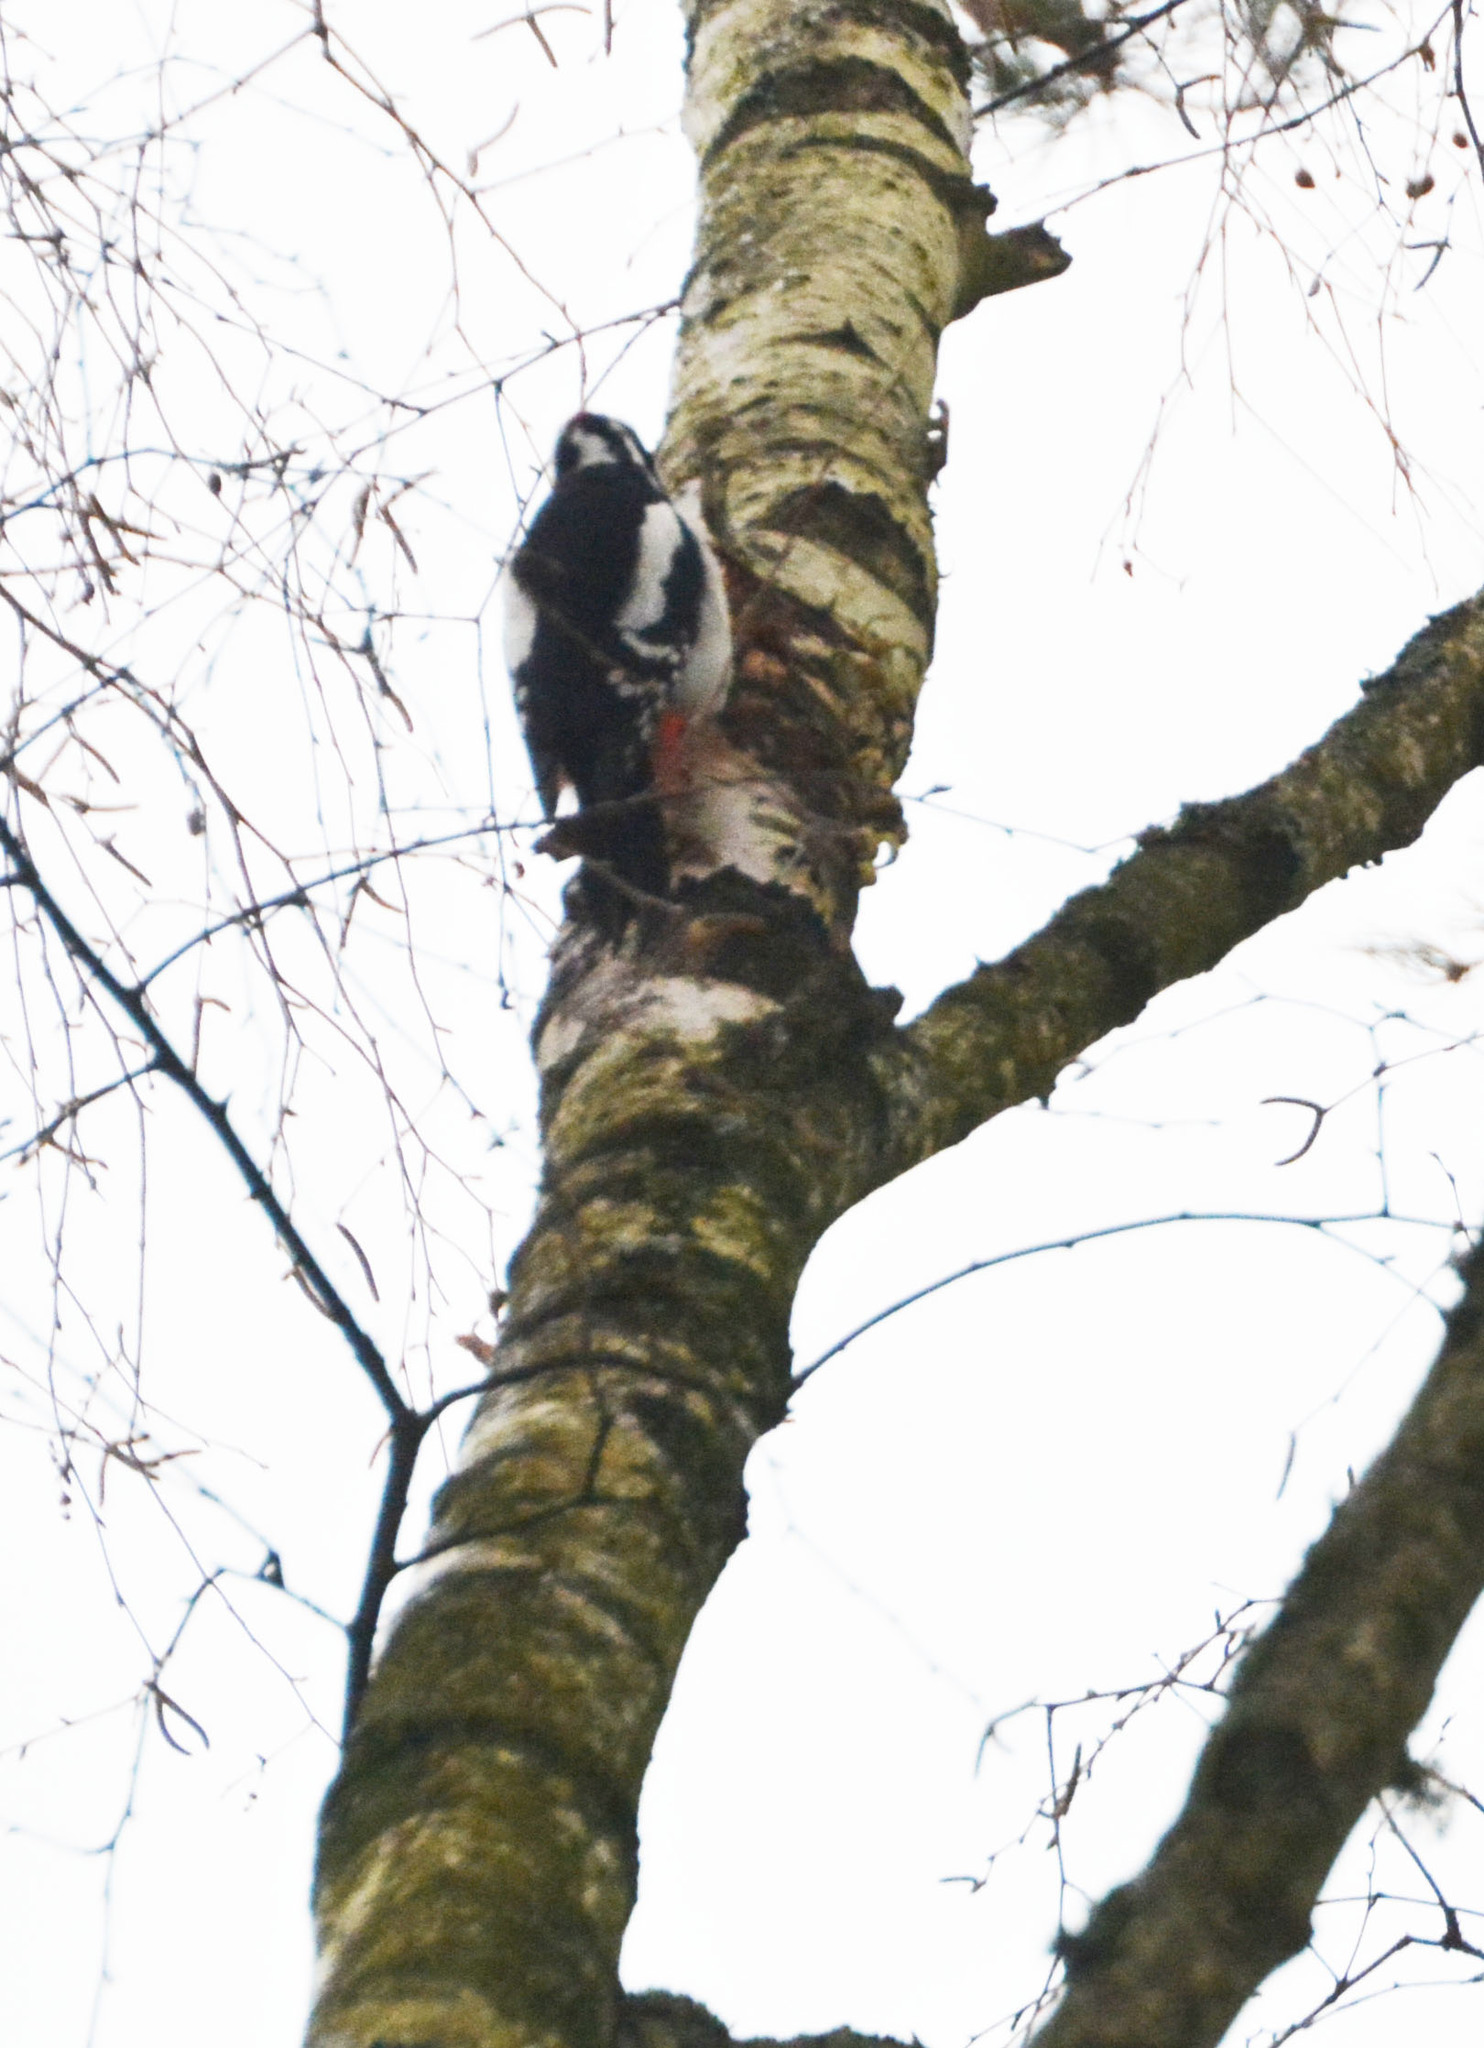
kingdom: Animalia
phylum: Chordata
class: Aves
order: Piciformes
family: Picidae
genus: Dendrocopos
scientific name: Dendrocopos major
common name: Great spotted woodpecker
